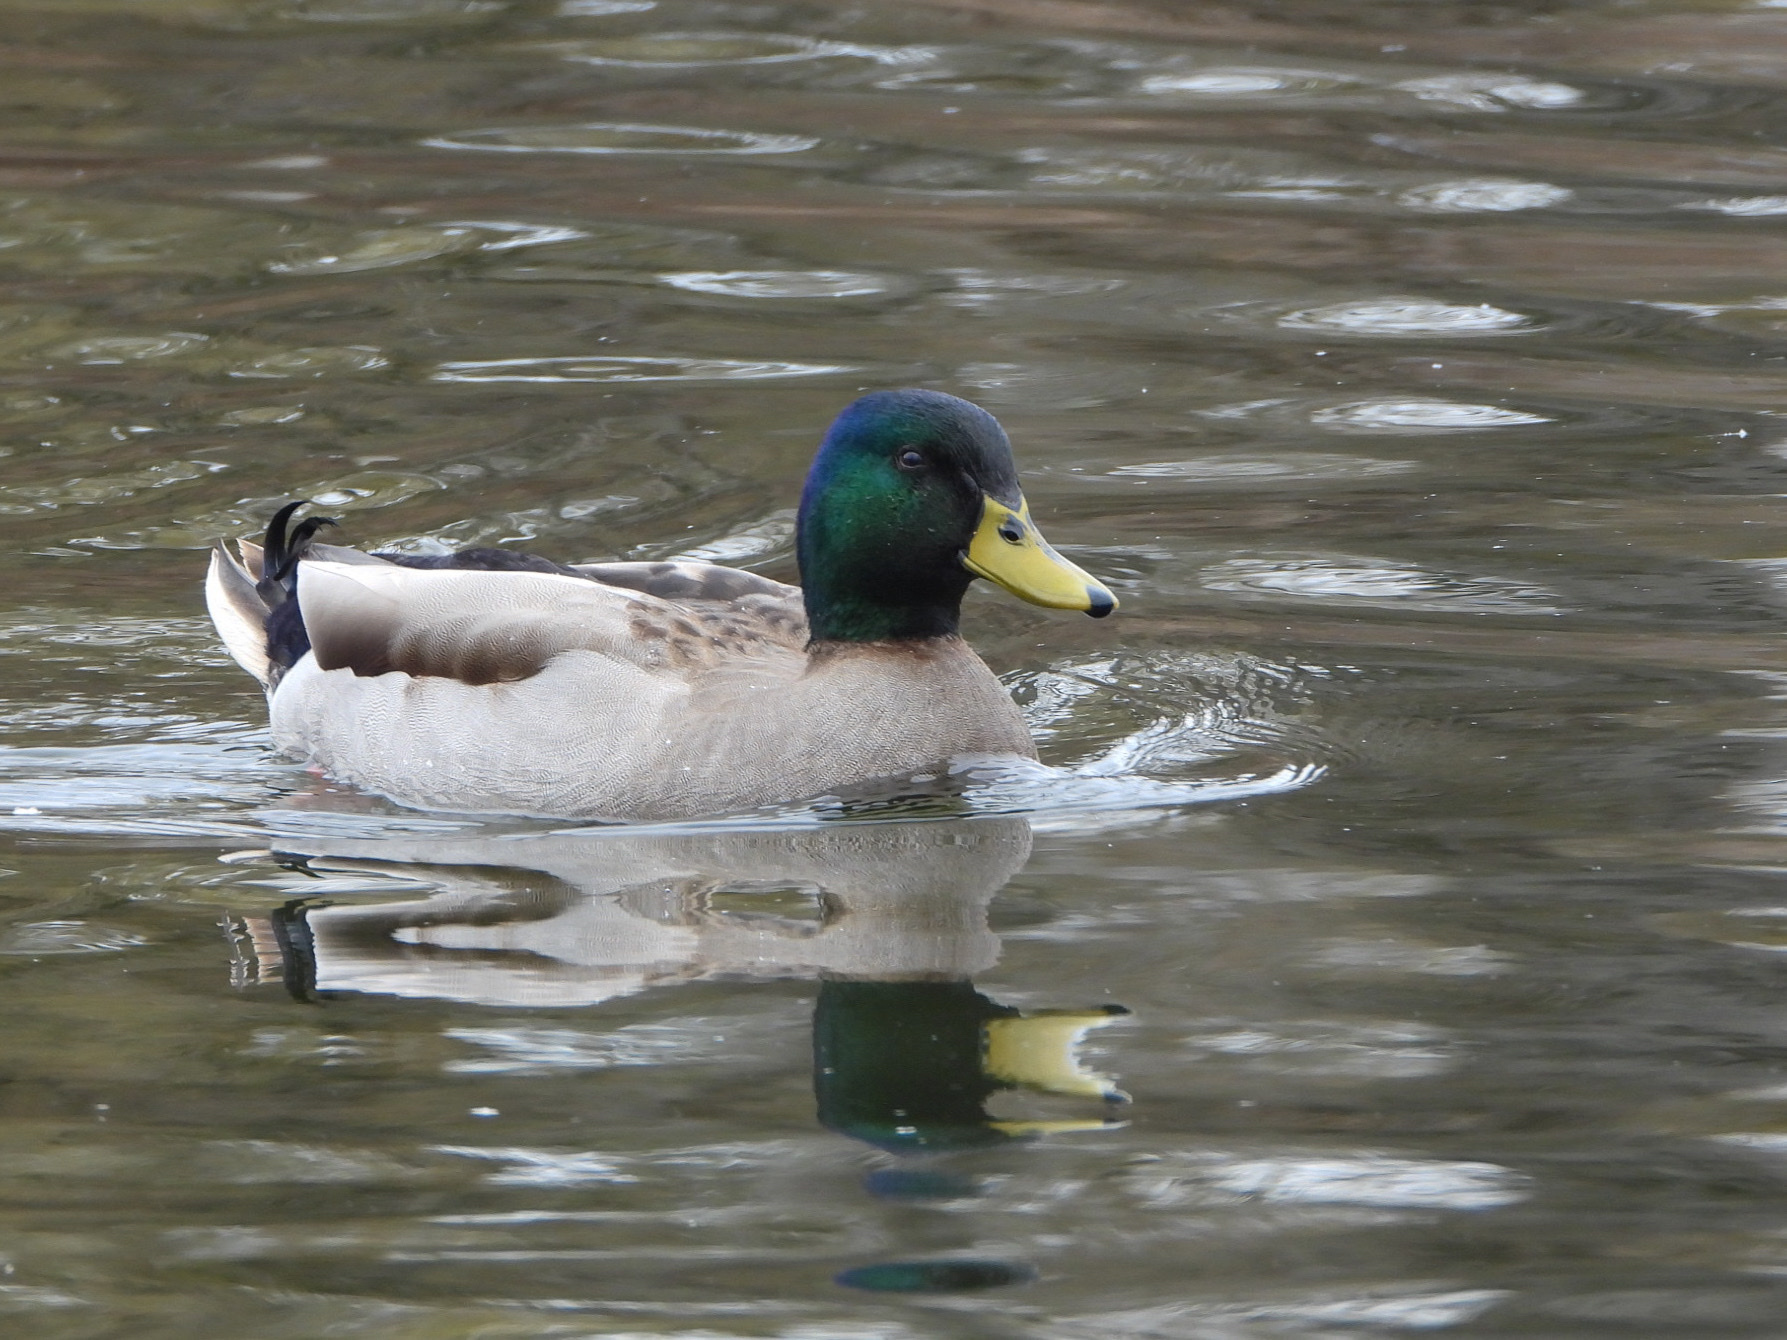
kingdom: Animalia
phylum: Chordata
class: Aves
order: Anseriformes
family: Anatidae
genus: Anas
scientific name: Anas platyrhynchos
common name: Mallard
